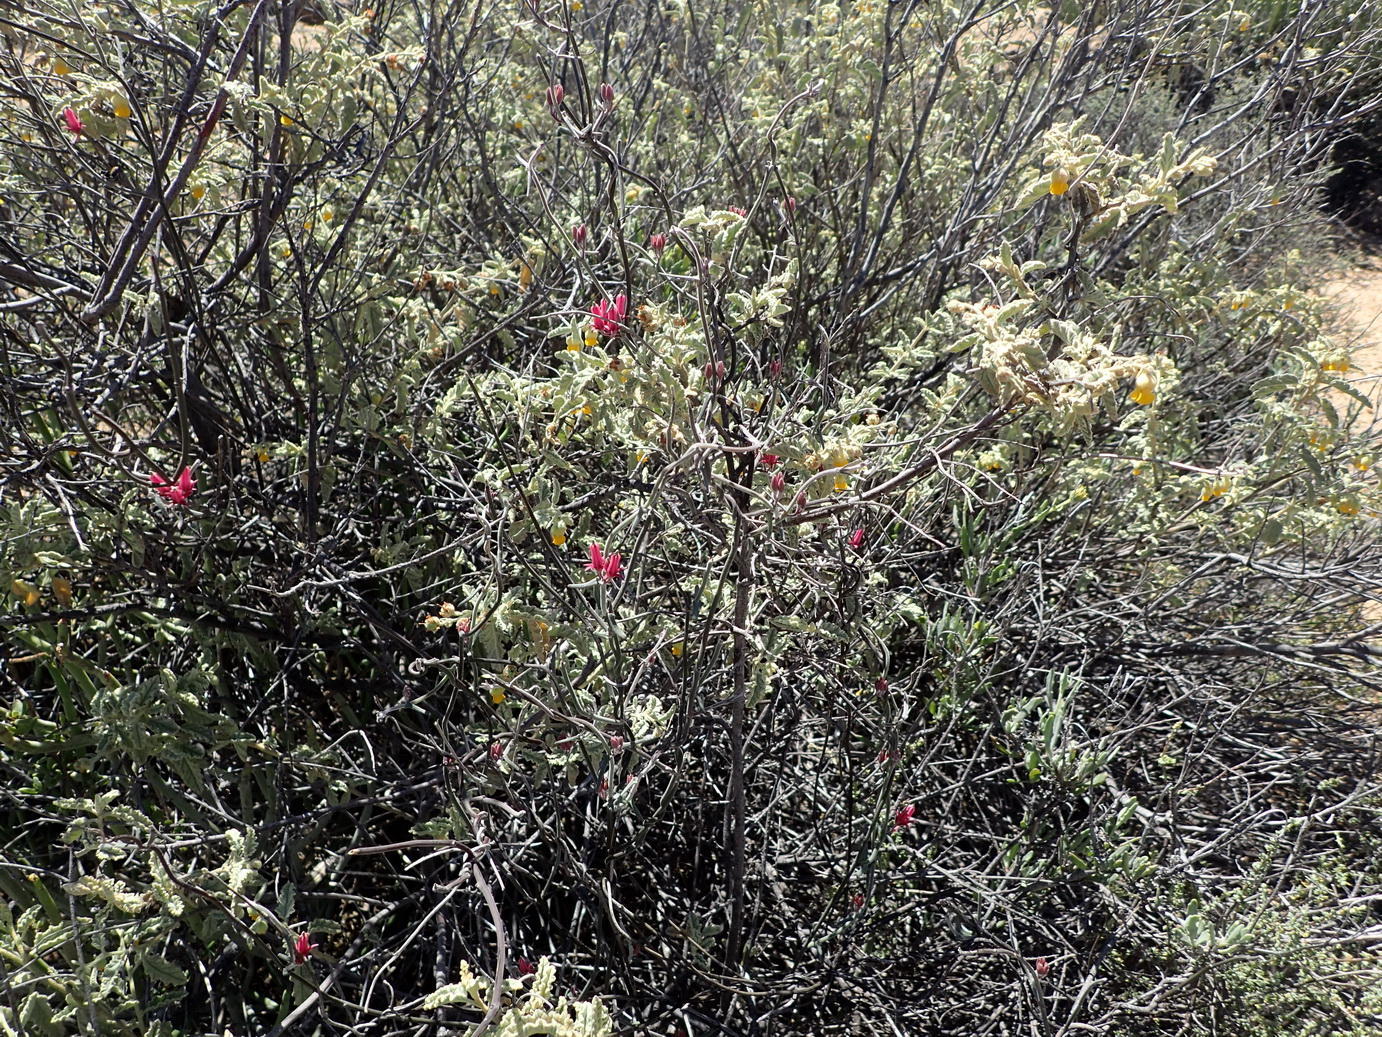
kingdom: Plantae
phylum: Tracheophyta
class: Magnoliopsida
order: Gentianales
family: Apocynaceae
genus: Microloma
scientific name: Microloma sagittatum
